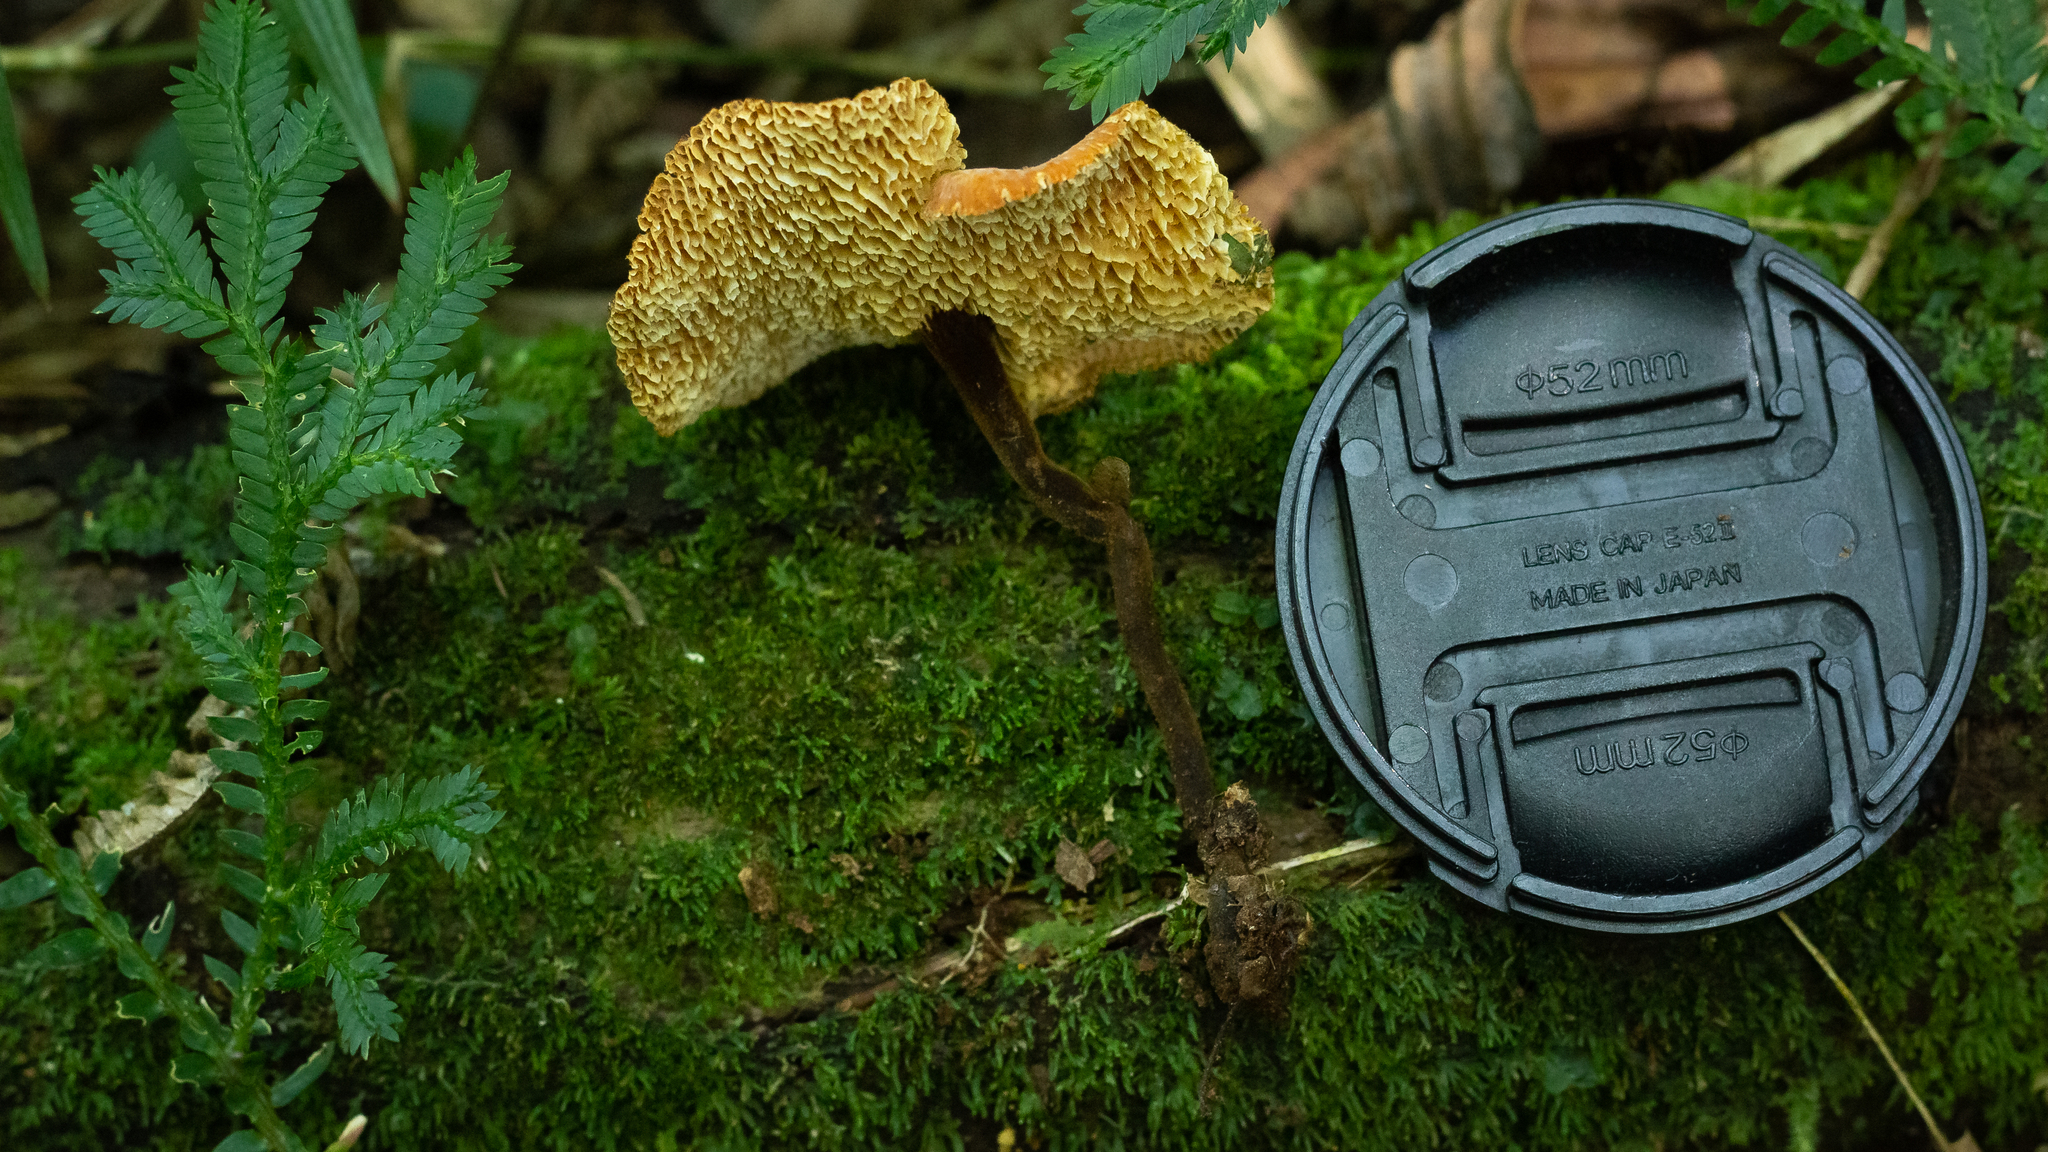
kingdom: Fungi
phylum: Basidiomycota
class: Agaricomycetes
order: Polyporales
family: Polyporaceae
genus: Polyporus
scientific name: Polyporus puttemansii
